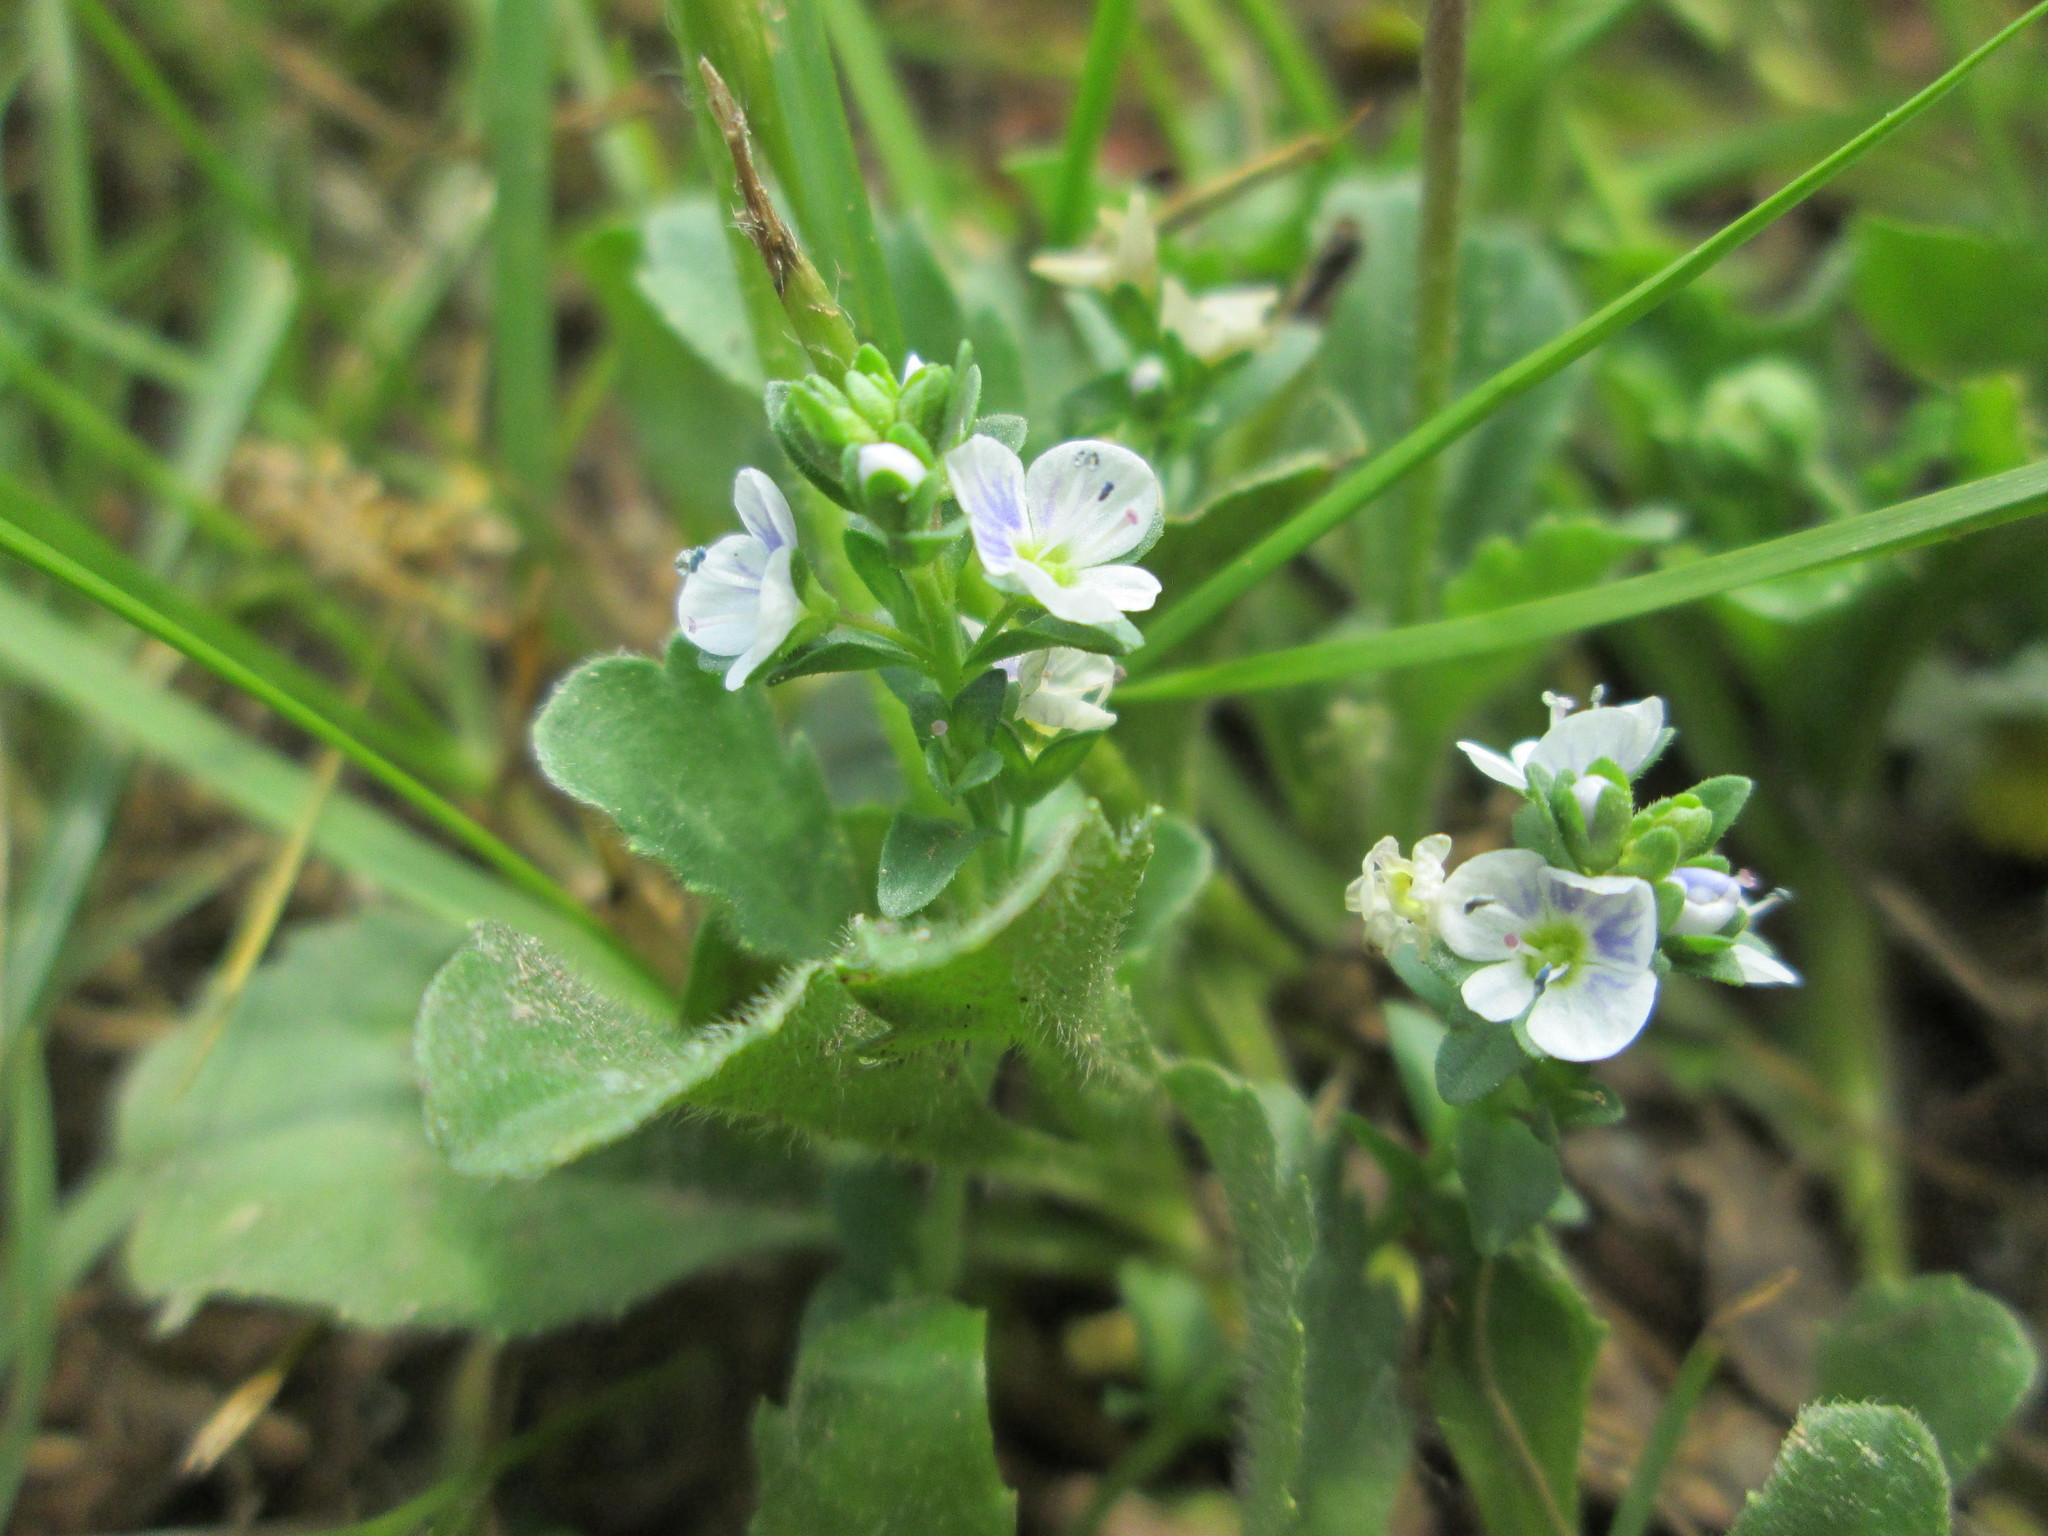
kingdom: Plantae
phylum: Tracheophyta
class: Magnoliopsida
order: Lamiales
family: Plantaginaceae
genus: Veronica
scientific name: Veronica serpyllifolia
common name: Thyme-leaved speedwell
